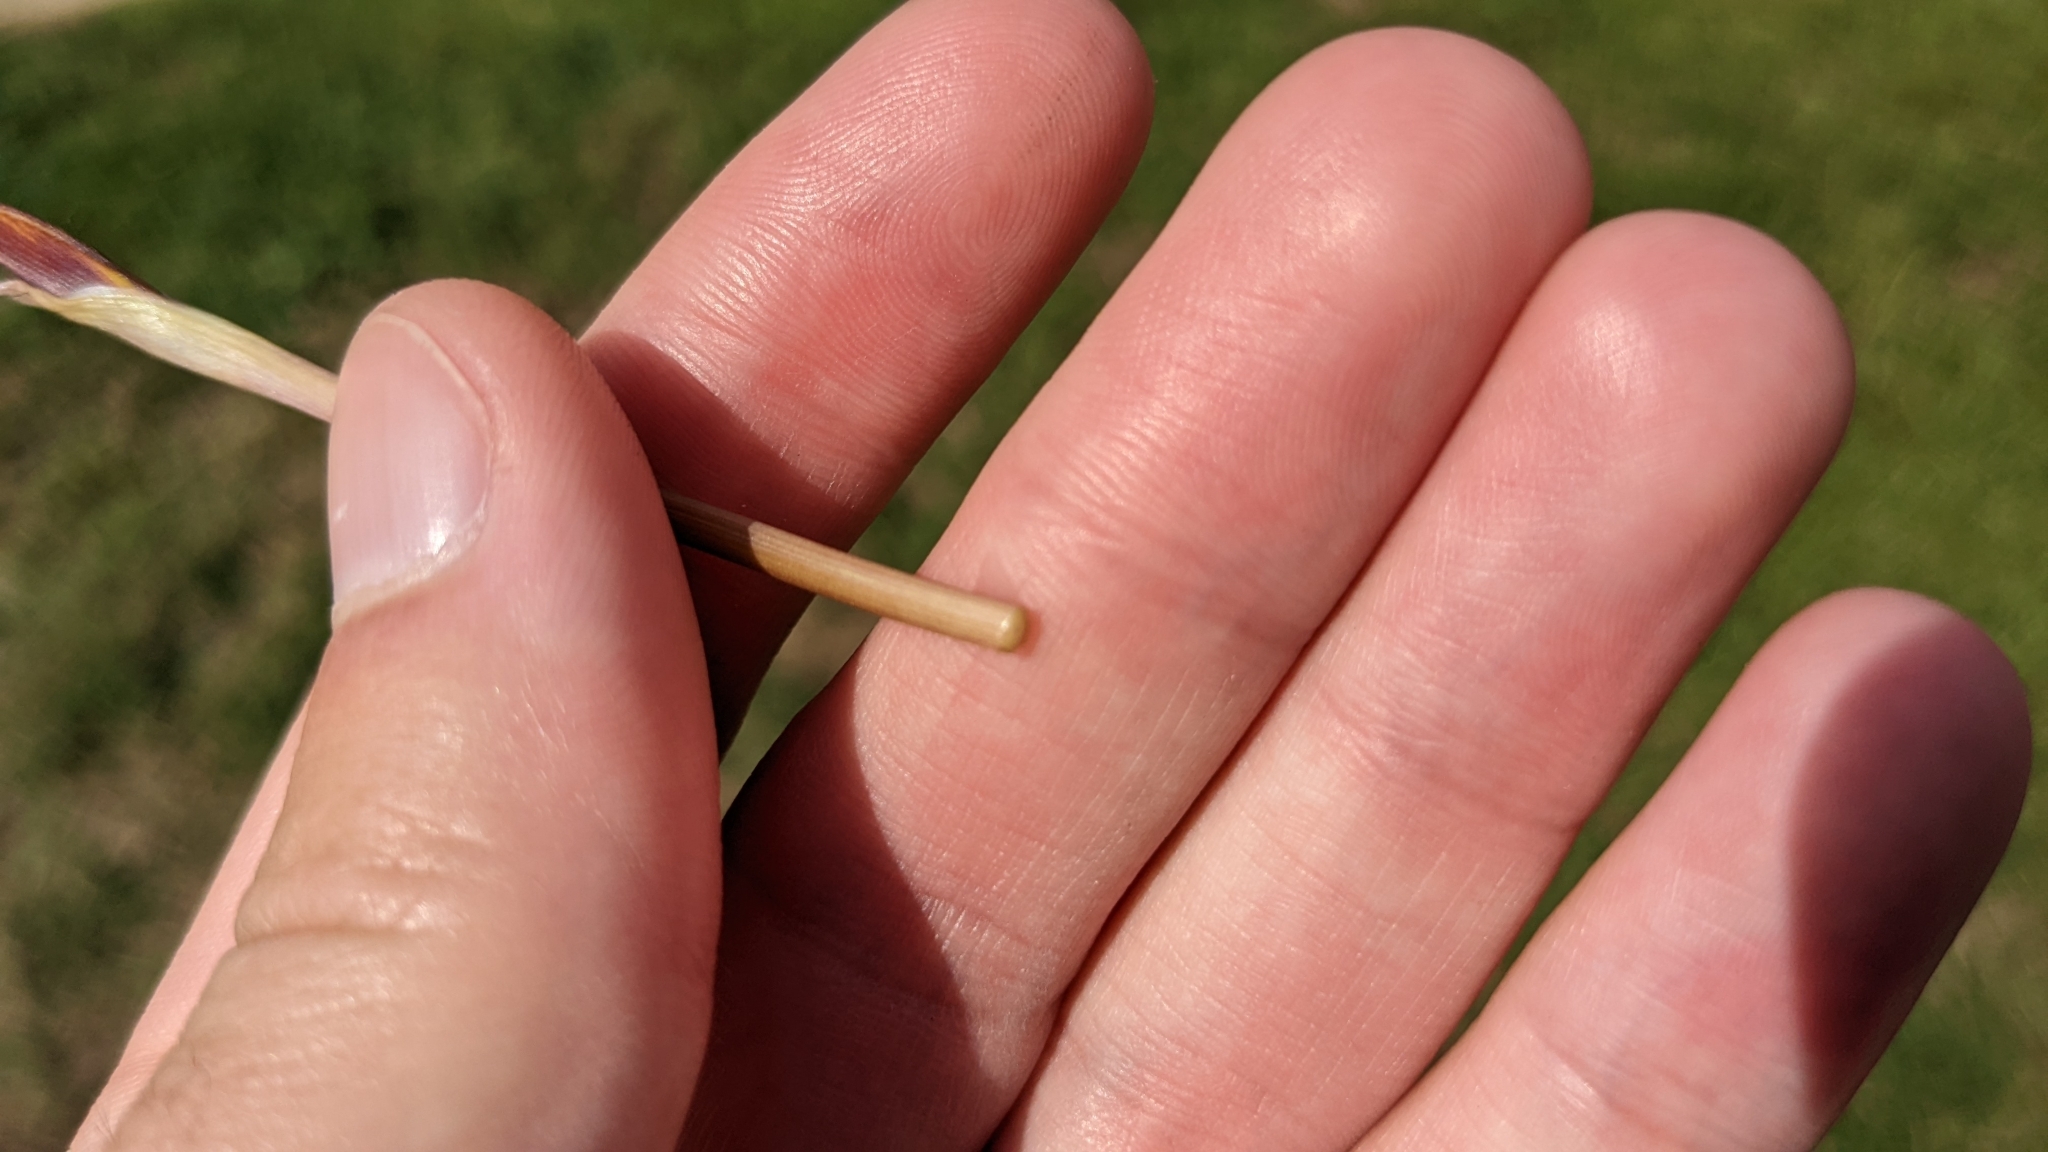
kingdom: Plantae
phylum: Tracheophyta
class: Liliopsida
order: Asparagales
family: Amaryllidaceae
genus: Zephyranthes
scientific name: Zephyranthes tubispatha
